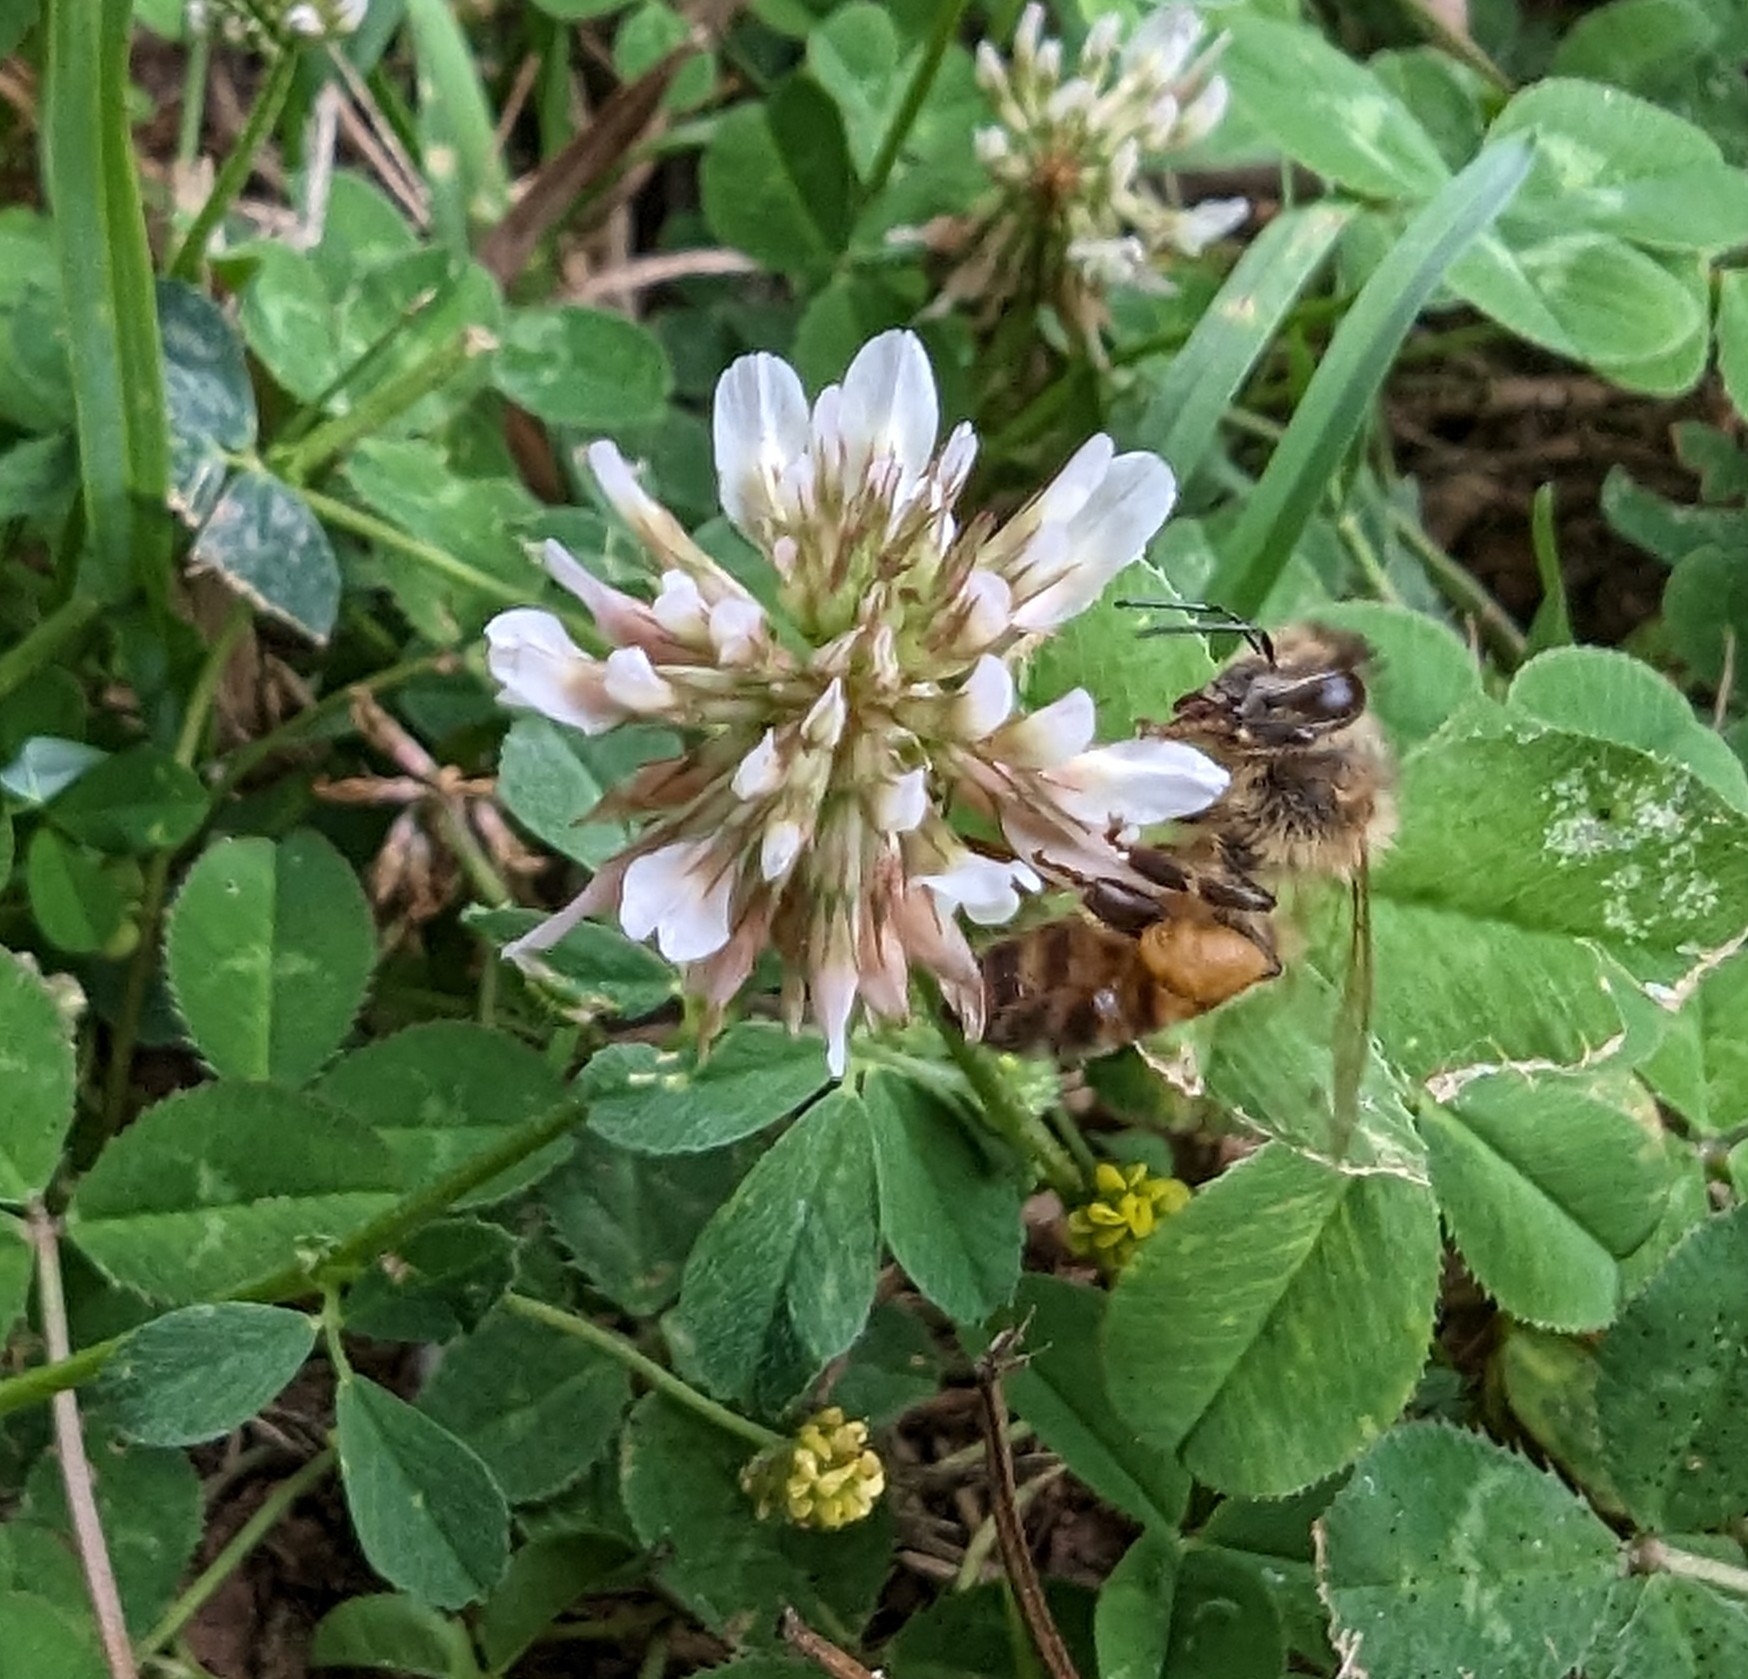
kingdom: Animalia
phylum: Arthropoda
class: Insecta
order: Hymenoptera
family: Apidae
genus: Apis
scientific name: Apis mellifera
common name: Honey bee
